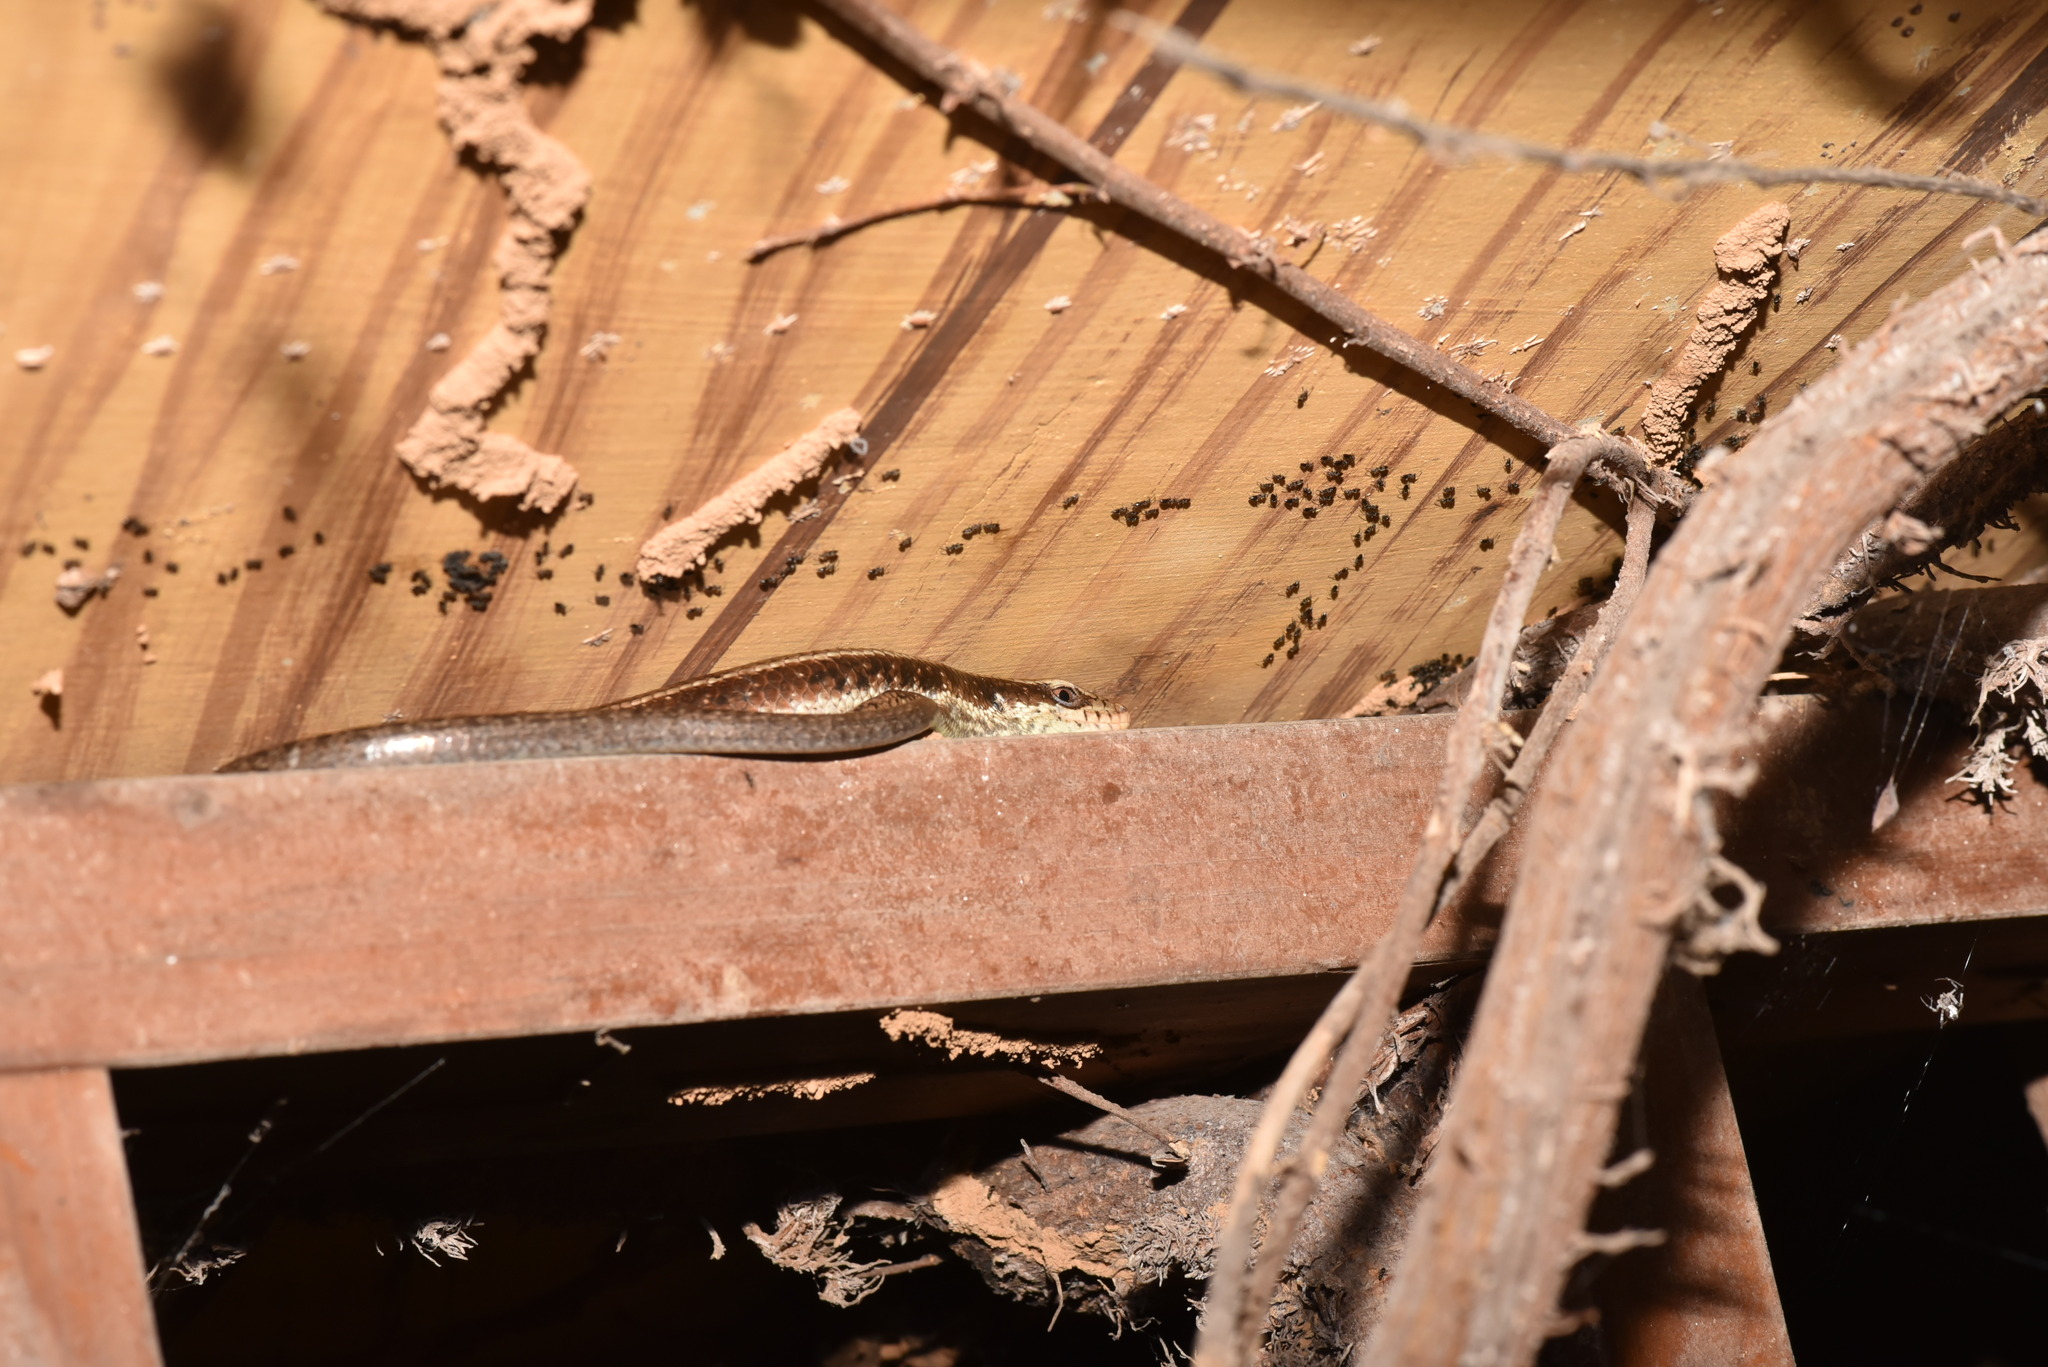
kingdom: Animalia
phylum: Chordata
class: Squamata
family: Scincidae
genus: Eutropis
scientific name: Eutropis longicaudata
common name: Long-tailed sun skink
